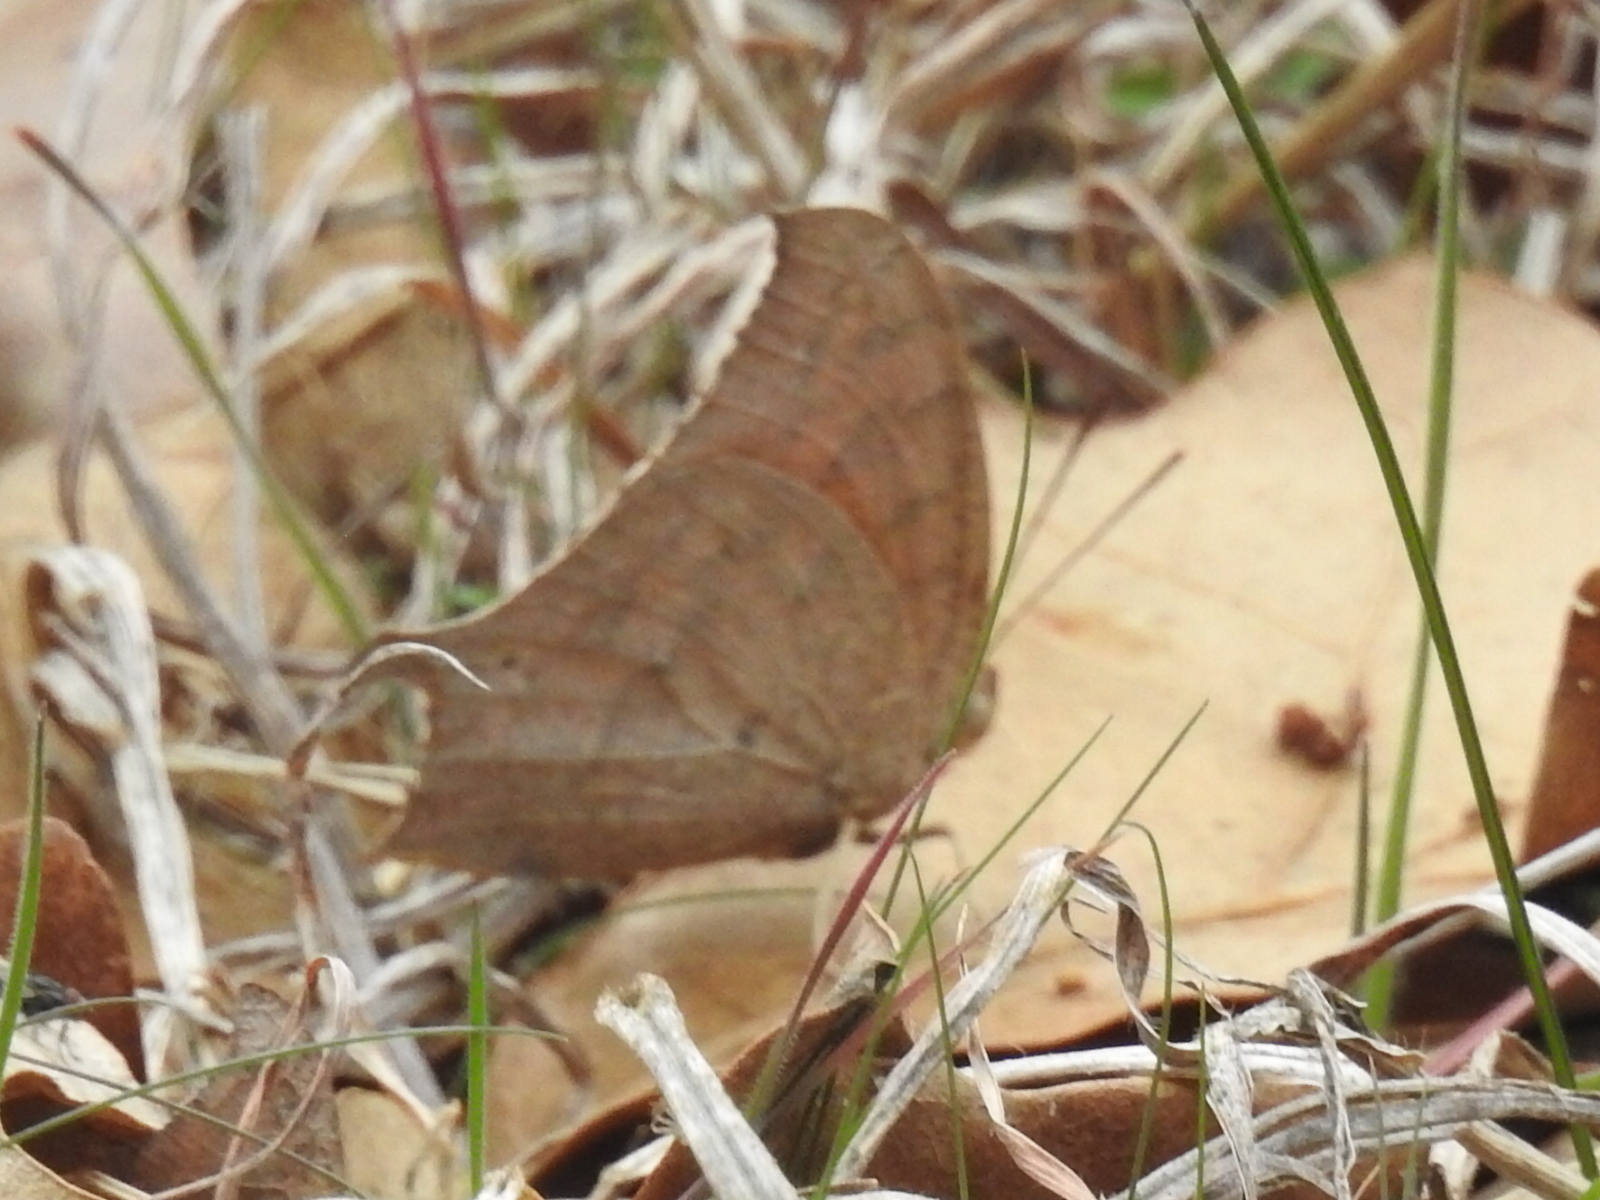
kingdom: Animalia
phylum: Arthropoda
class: Insecta
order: Lepidoptera
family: Nymphalidae
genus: Anaea
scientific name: Anaea andria
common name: Goatweed leafwing
